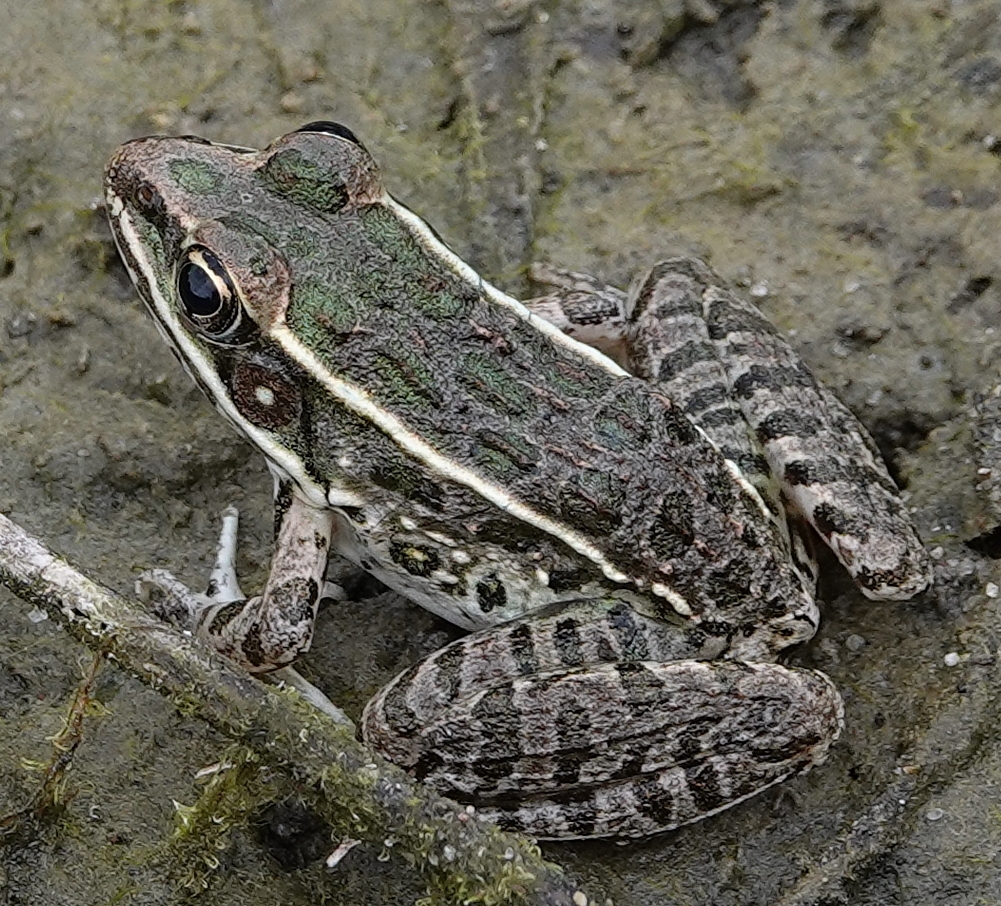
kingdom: Animalia
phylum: Chordata
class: Amphibia
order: Anura
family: Ranidae
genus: Lithobates
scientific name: Lithobates blairi
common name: Plains leopard frog
